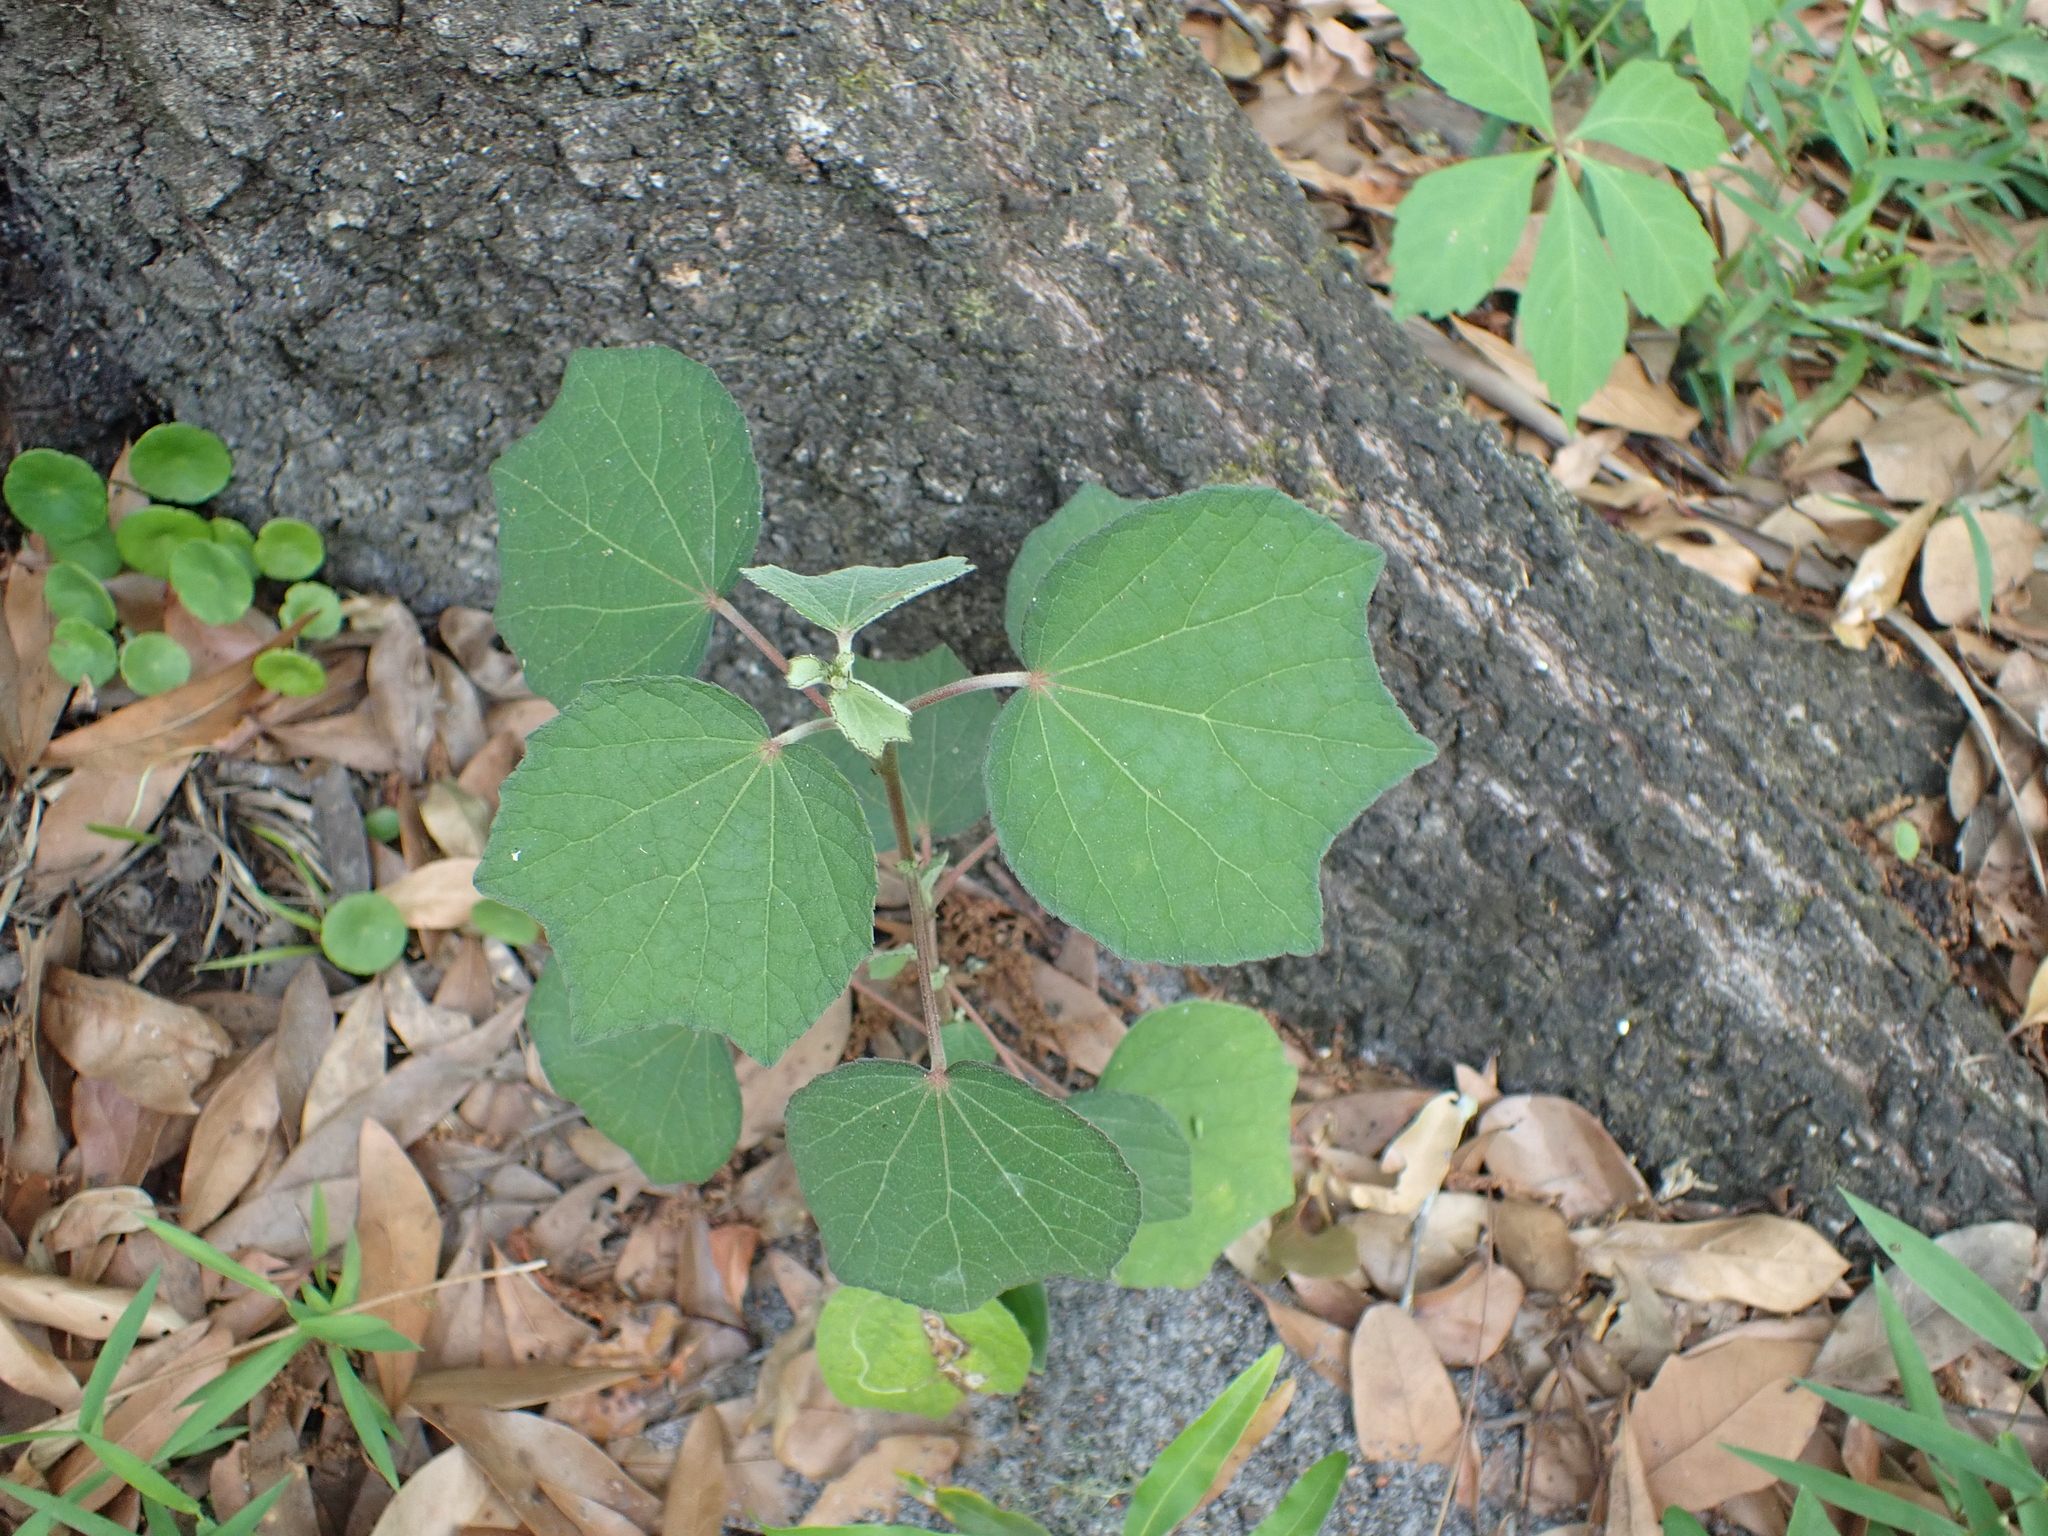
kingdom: Plantae
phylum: Tracheophyta
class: Magnoliopsida
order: Malvales
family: Malvaceae
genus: Urena
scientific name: Urena lobata
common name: Caesarweed
